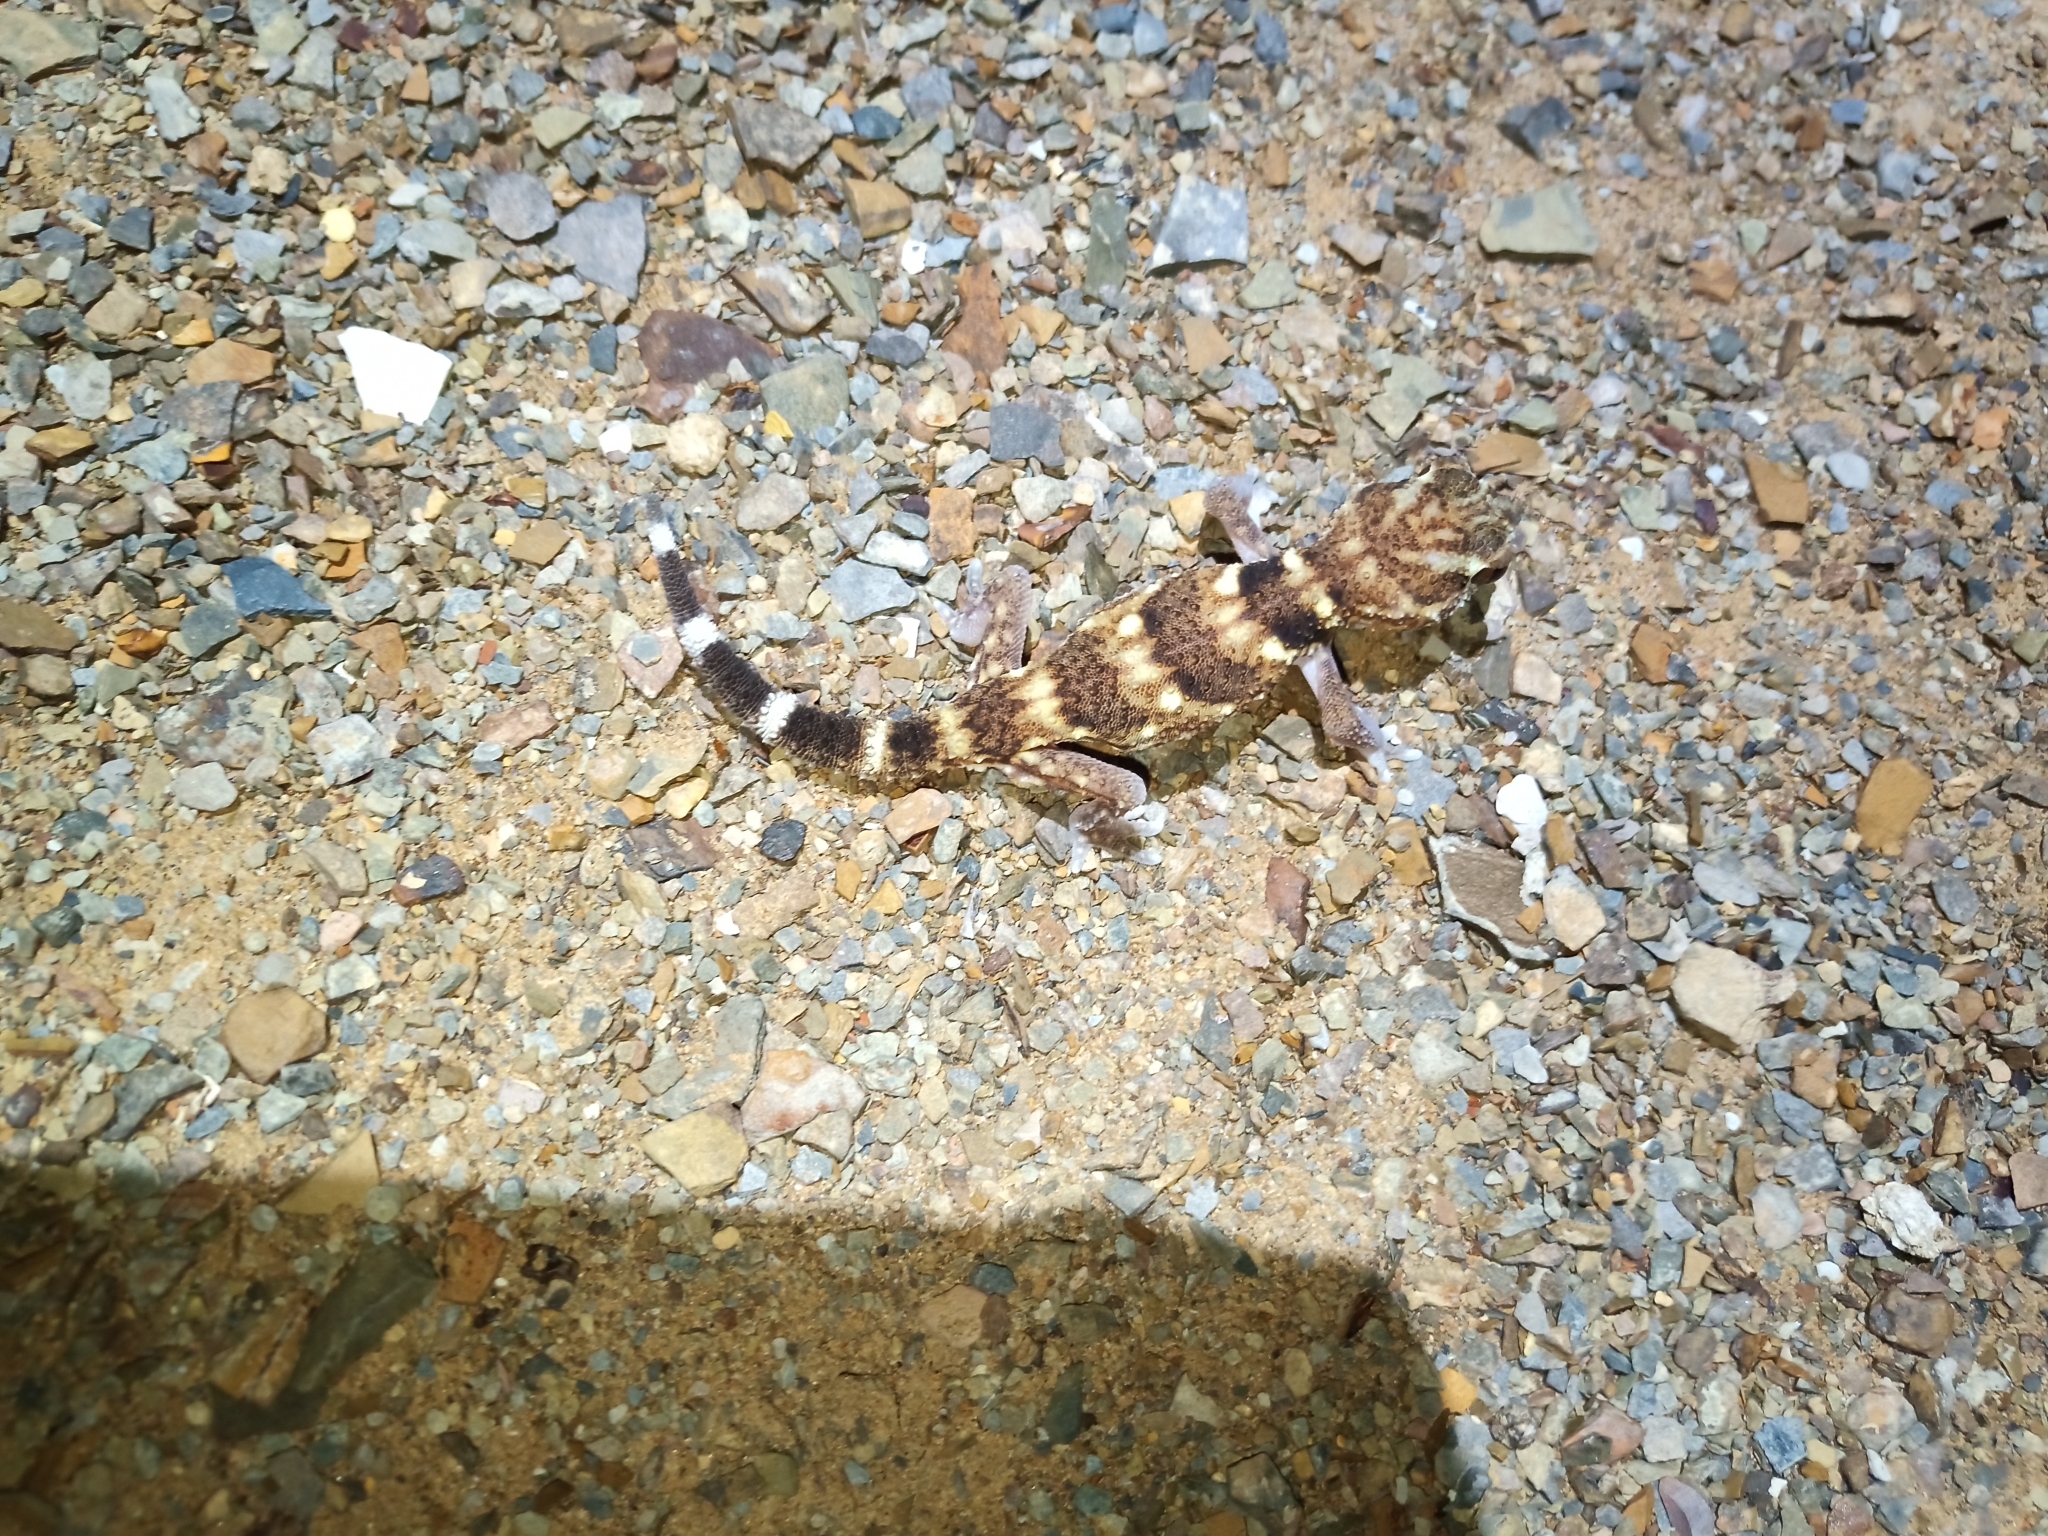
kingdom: Animalia
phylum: Chordata
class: Squamata
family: Gekkonidae
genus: Chondrodactylus
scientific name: Chondrodactylus angulifer
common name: Common giant ground gecko
